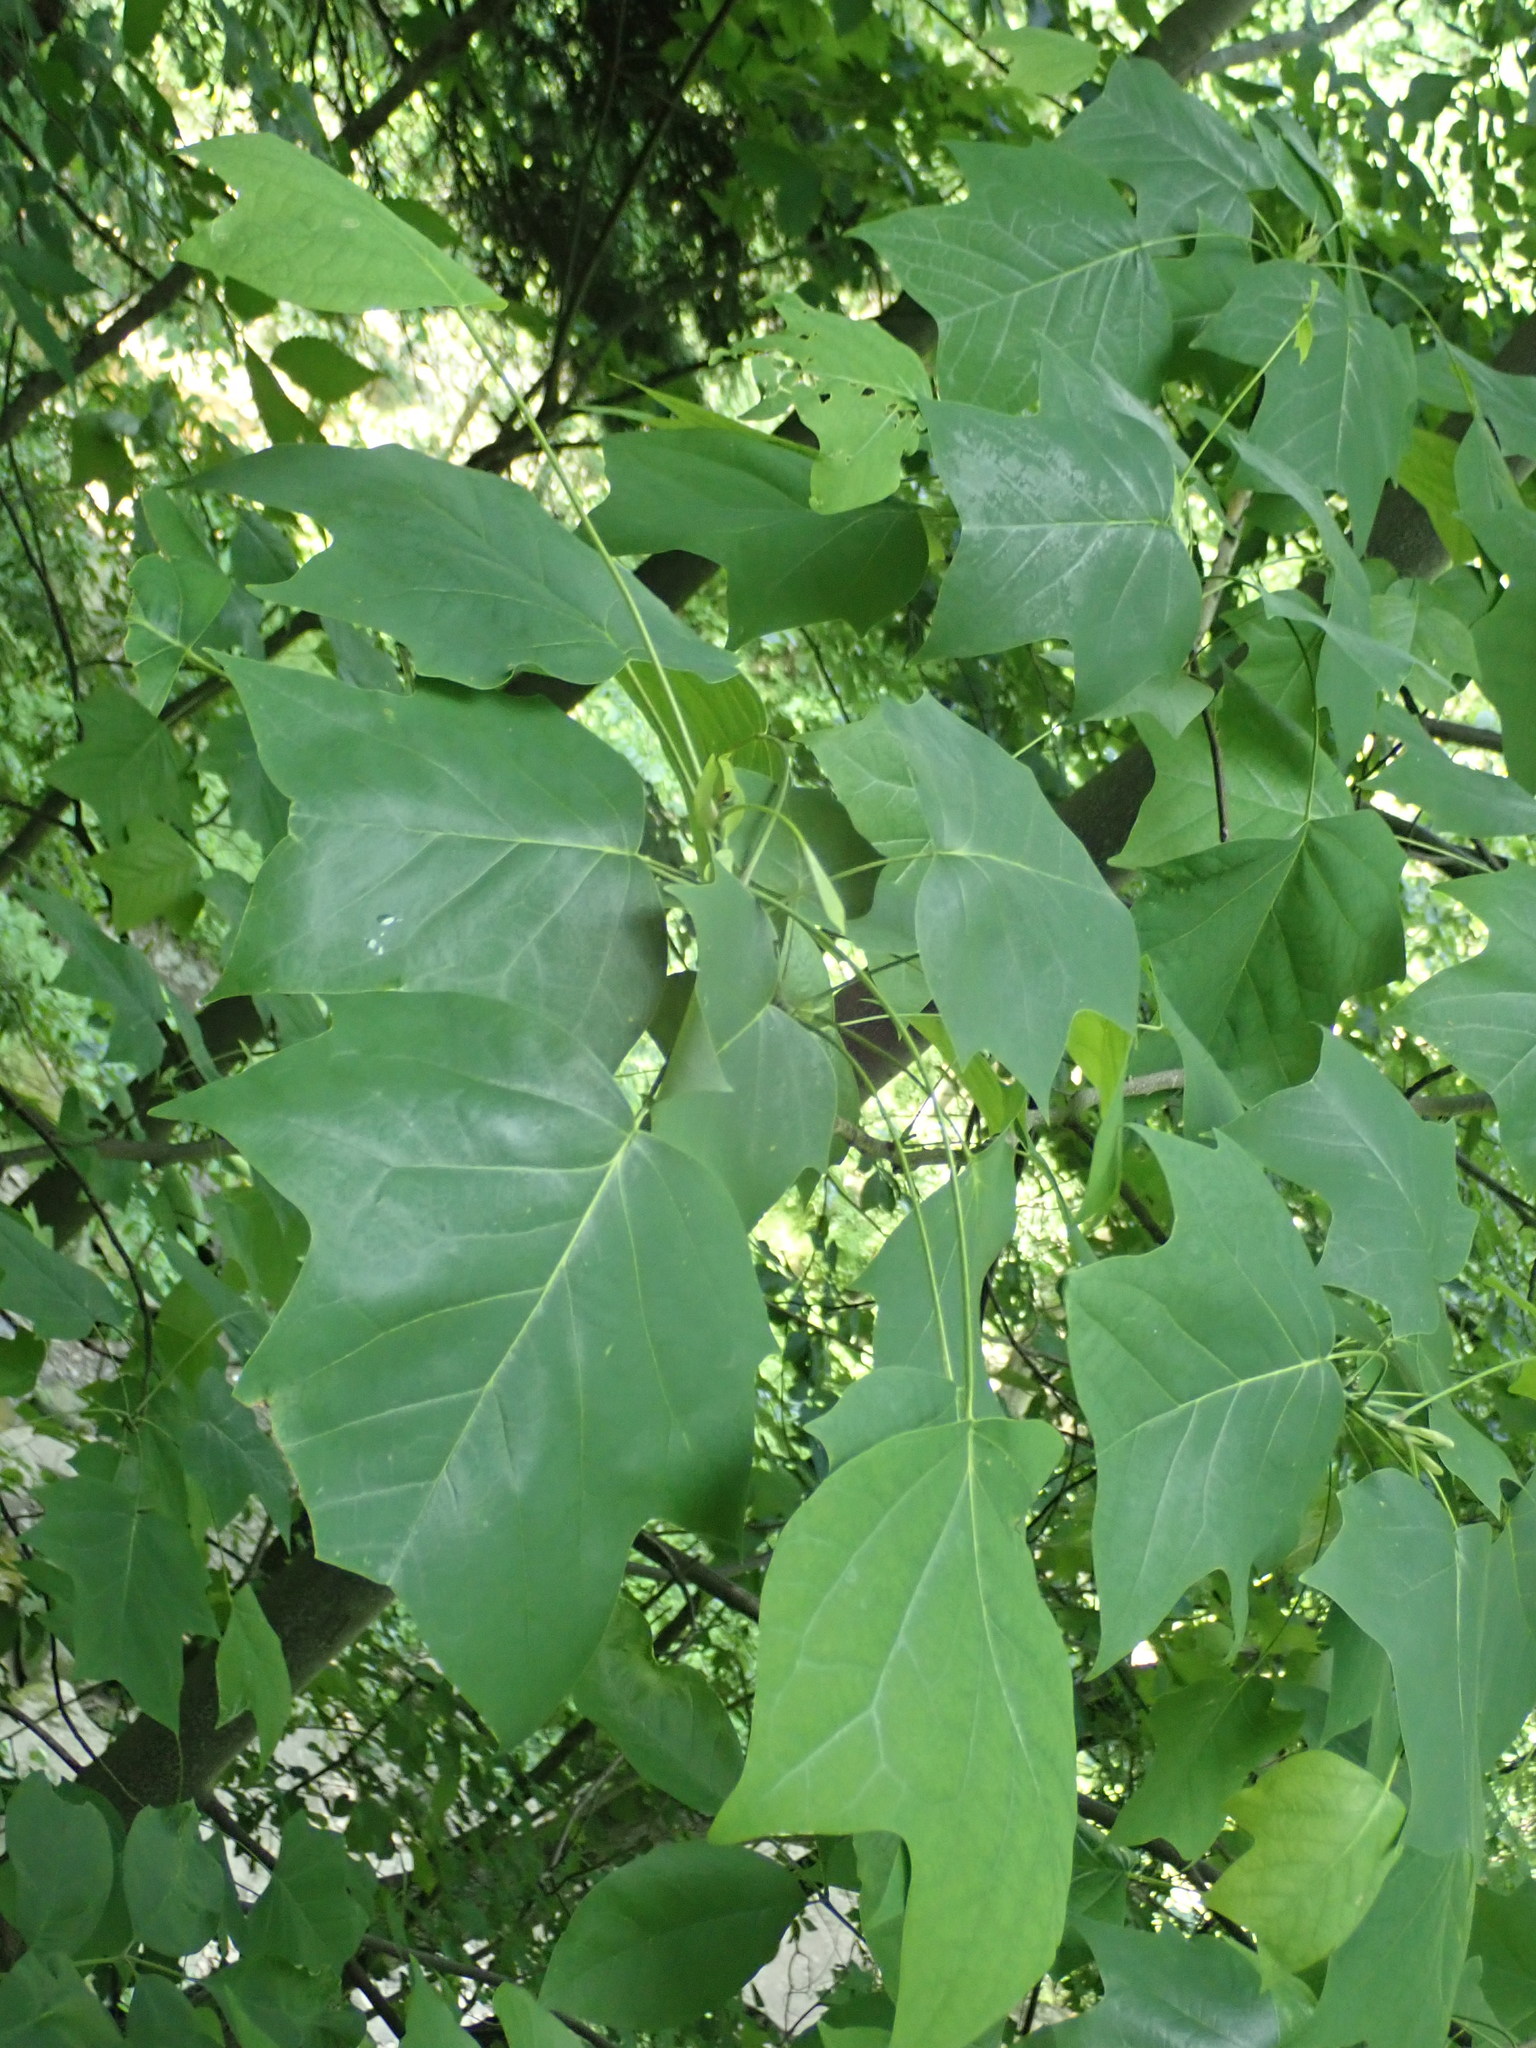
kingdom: Plantae
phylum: Tracheophyta
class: Magnoliopsida
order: Magnoliales
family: Magnoliaceae
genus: Liriodendron
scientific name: Liriodendron tulipifera
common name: Tulip tree
